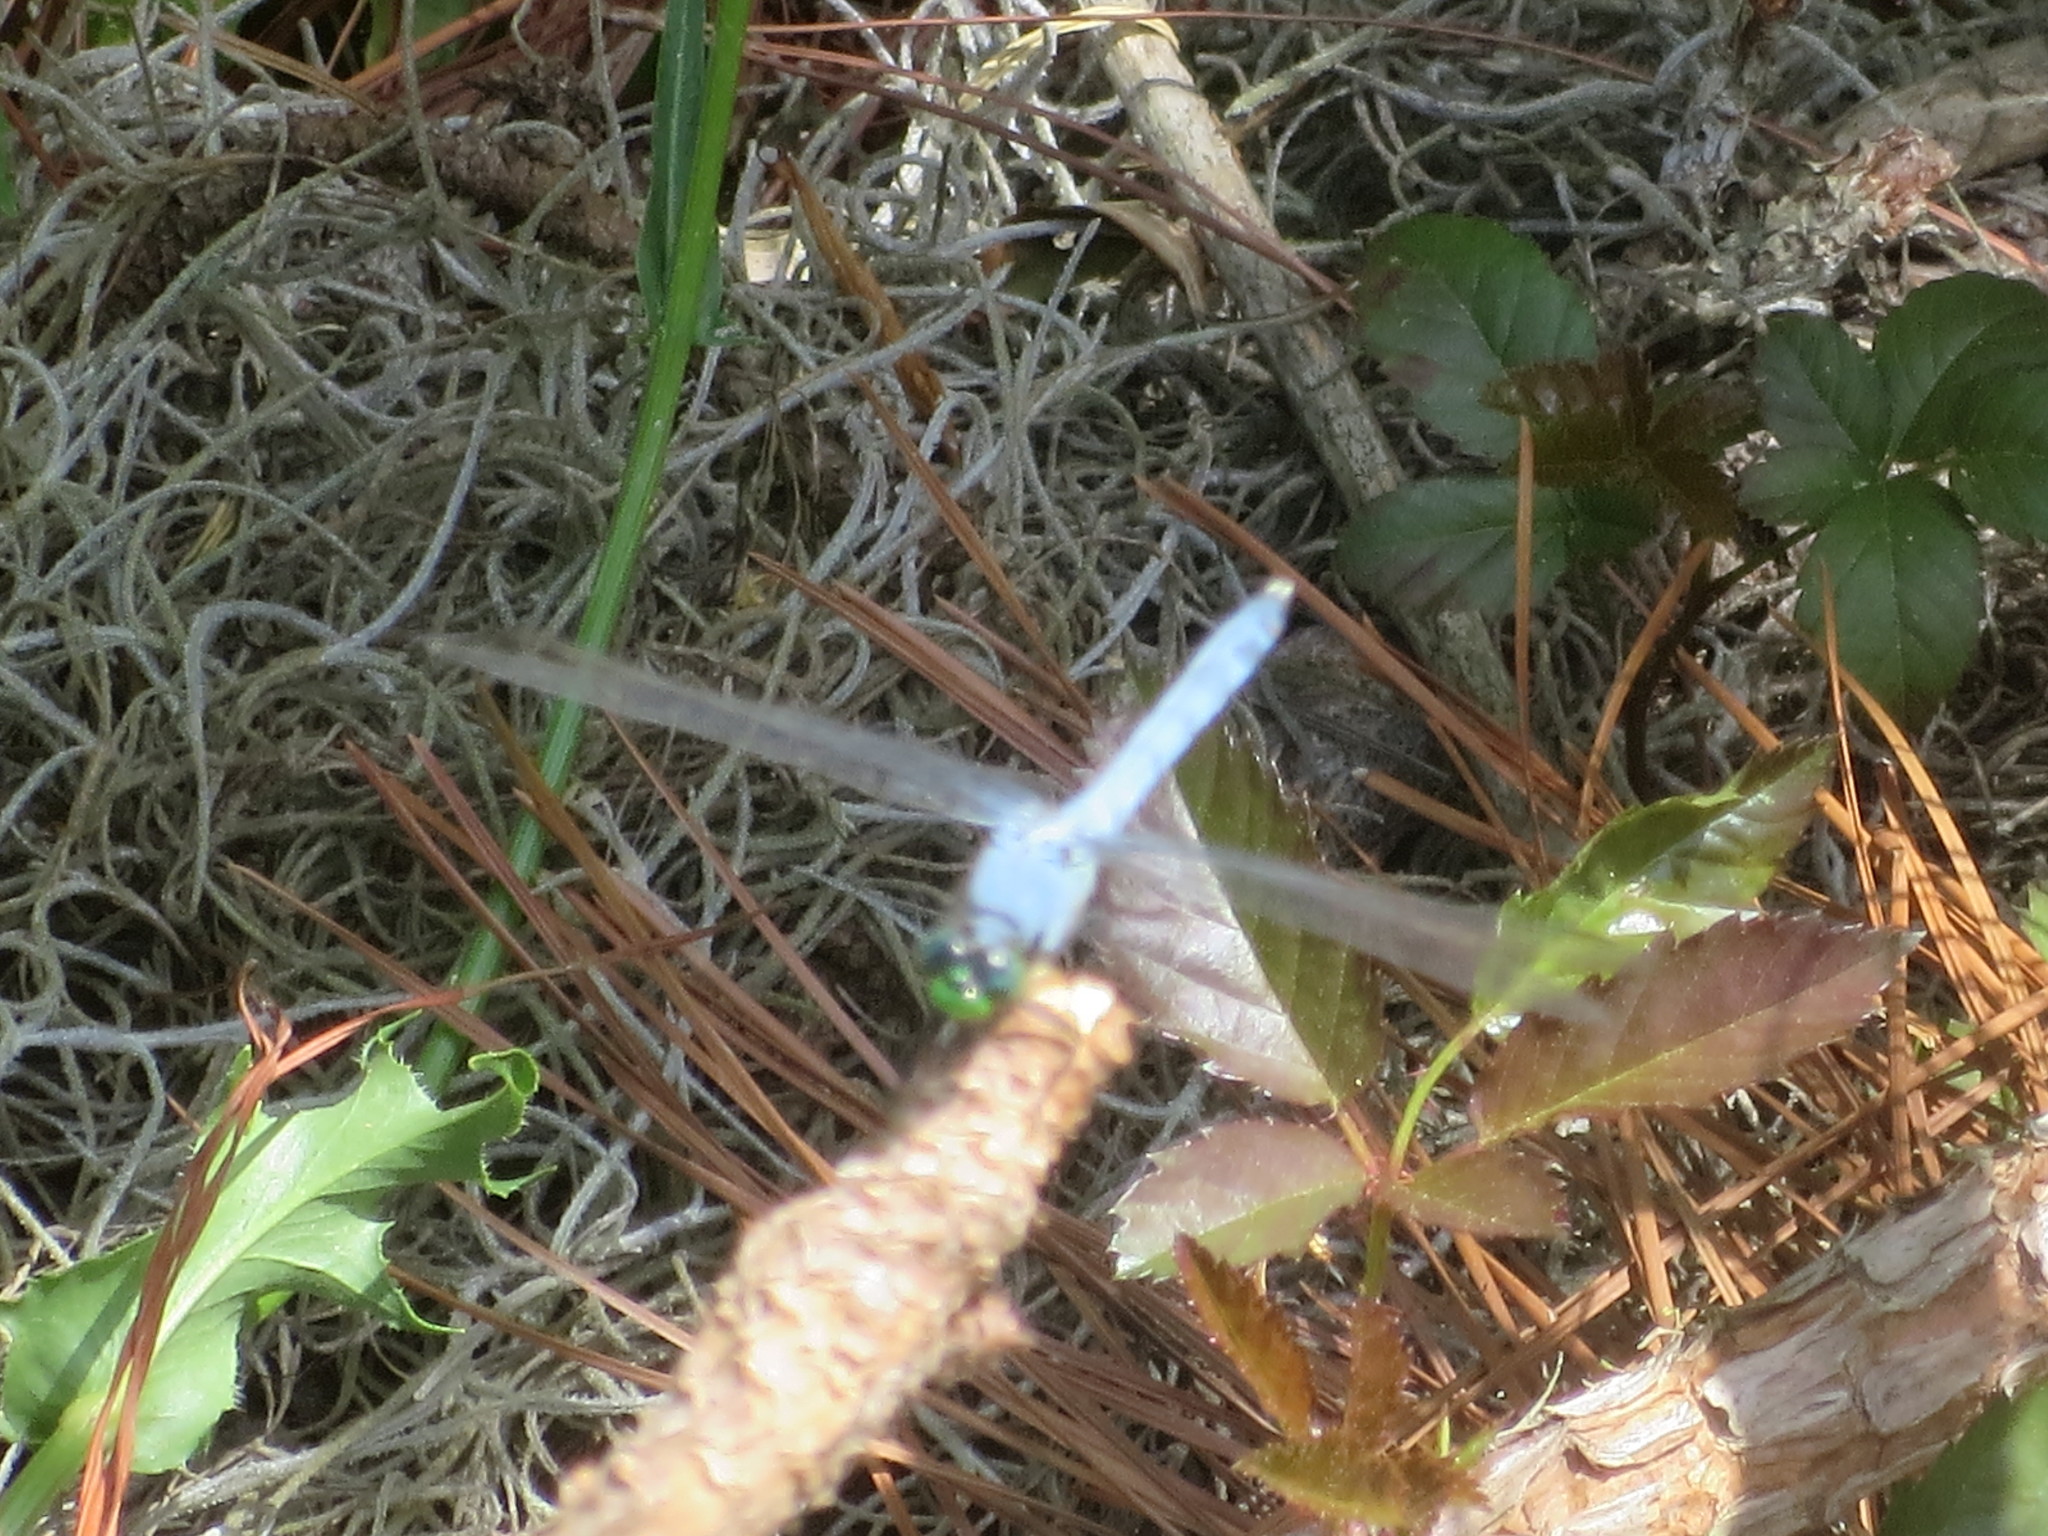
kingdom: Animalia
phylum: Arthropoda
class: Insecta
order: Odonata
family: Libellulidae
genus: Erythemis
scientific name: Erythemis simplicicollis
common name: Eastern pondhawk
